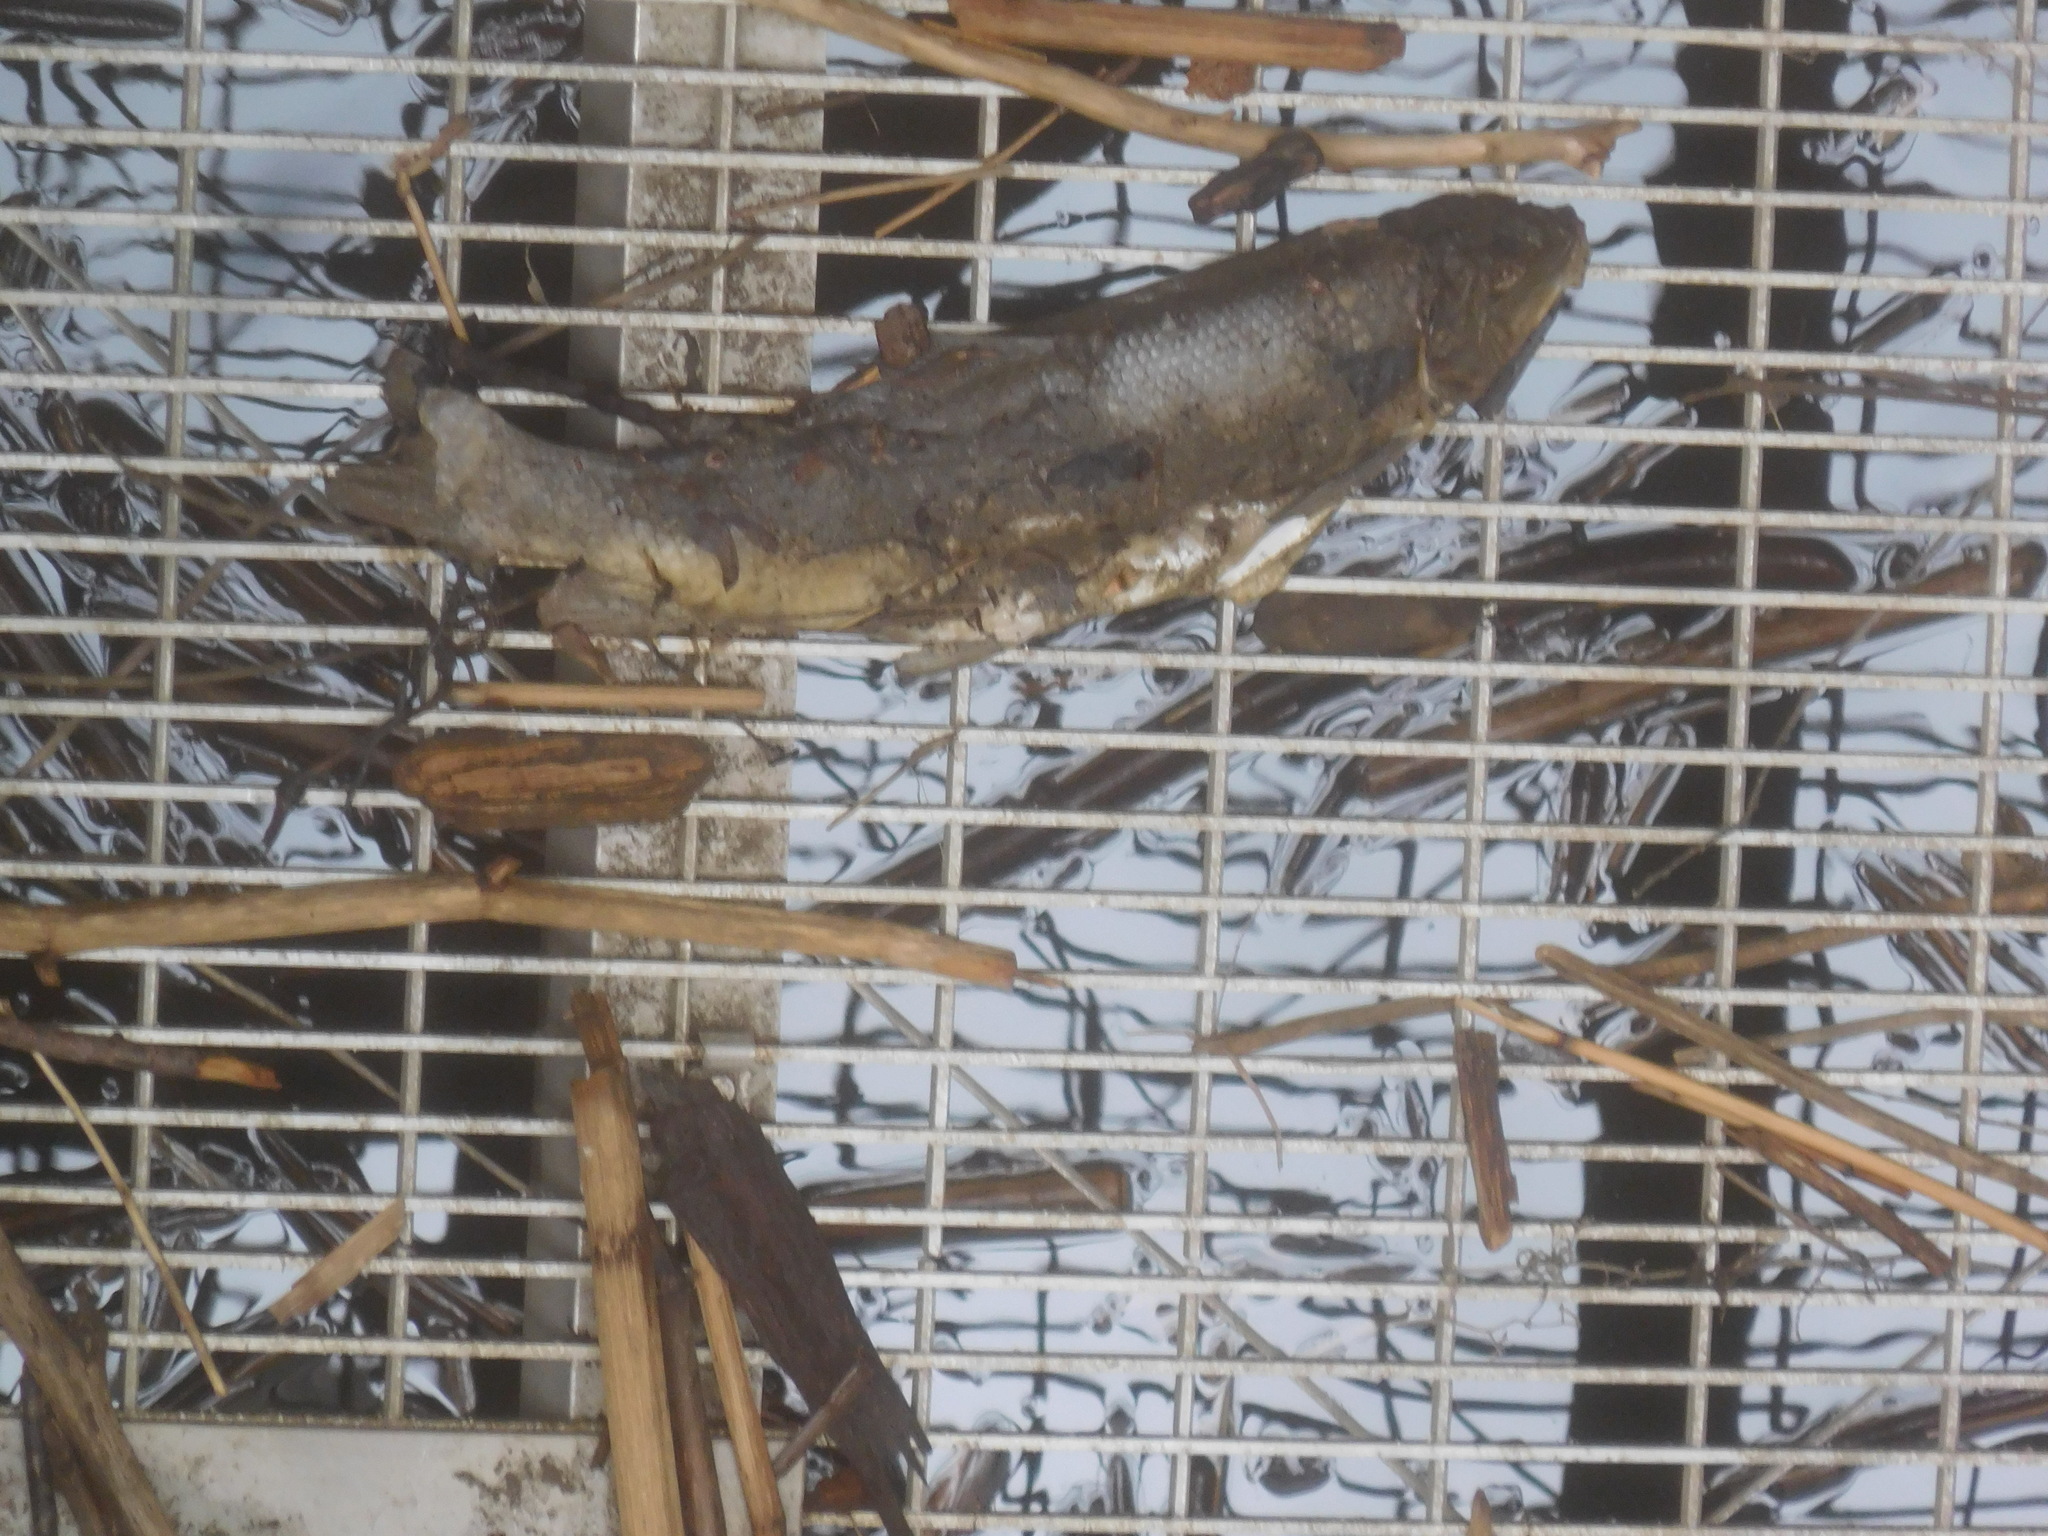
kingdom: Animalia
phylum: Chordata
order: Cypriniformes
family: Catostomidae
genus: Catostomus
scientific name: Catostomus commersonii
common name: White sucker
